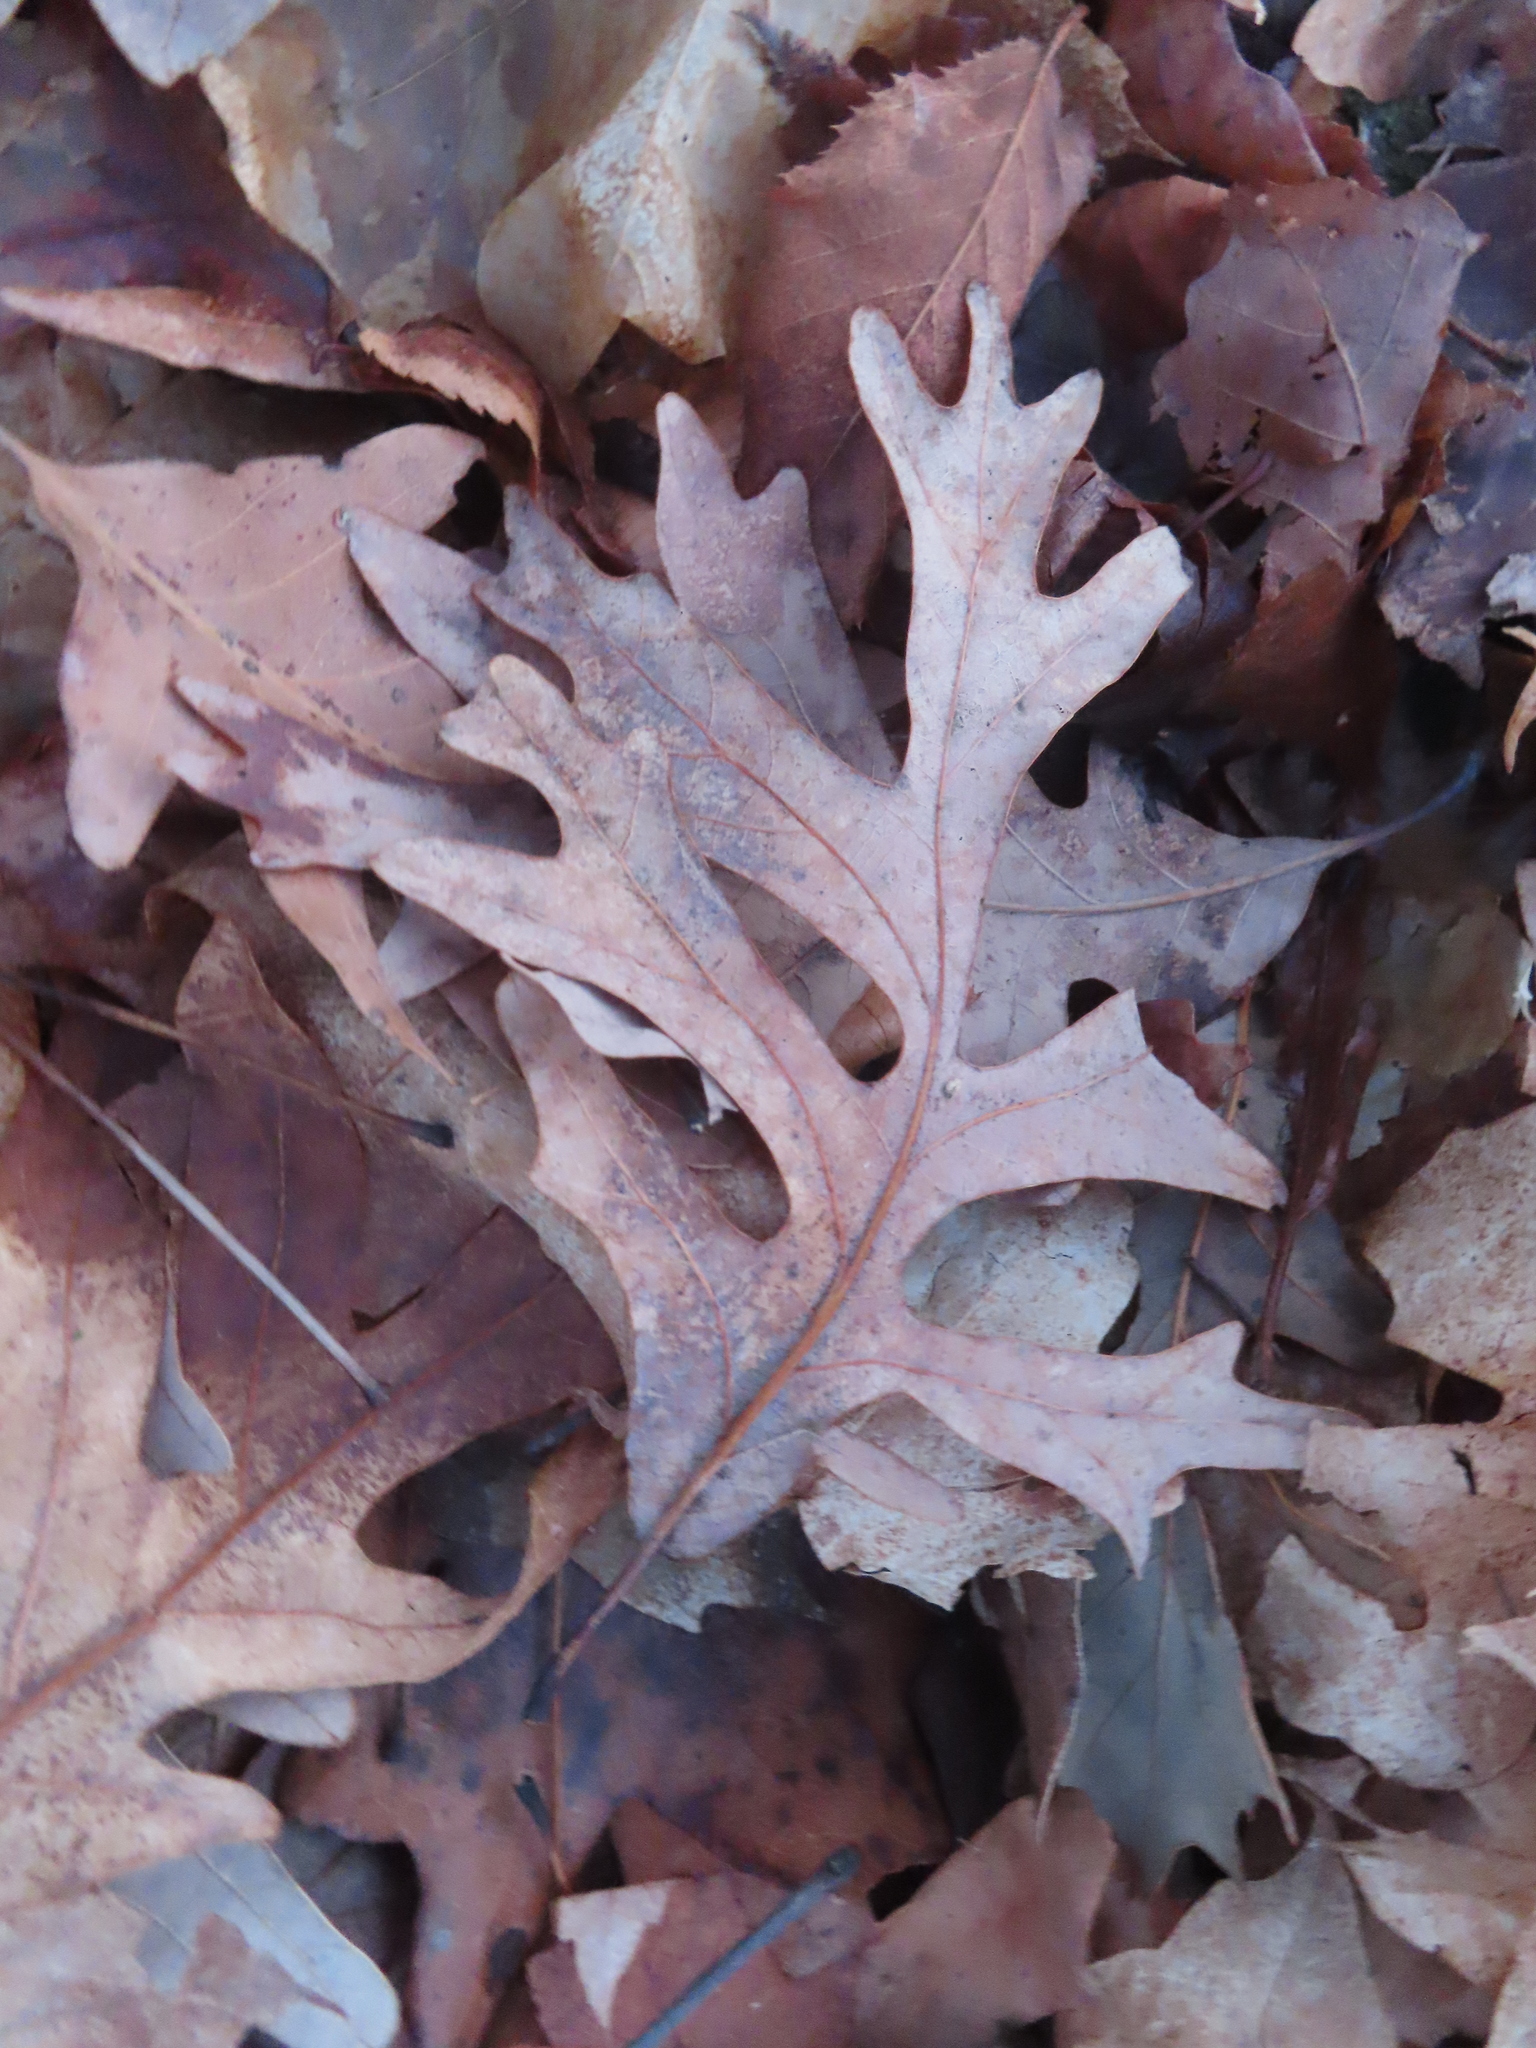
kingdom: Plantae
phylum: Tracheophyta
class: Magnoliopsida
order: Fagales
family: Fagaceae
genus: Quercus
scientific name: Quercus alba
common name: White oak
